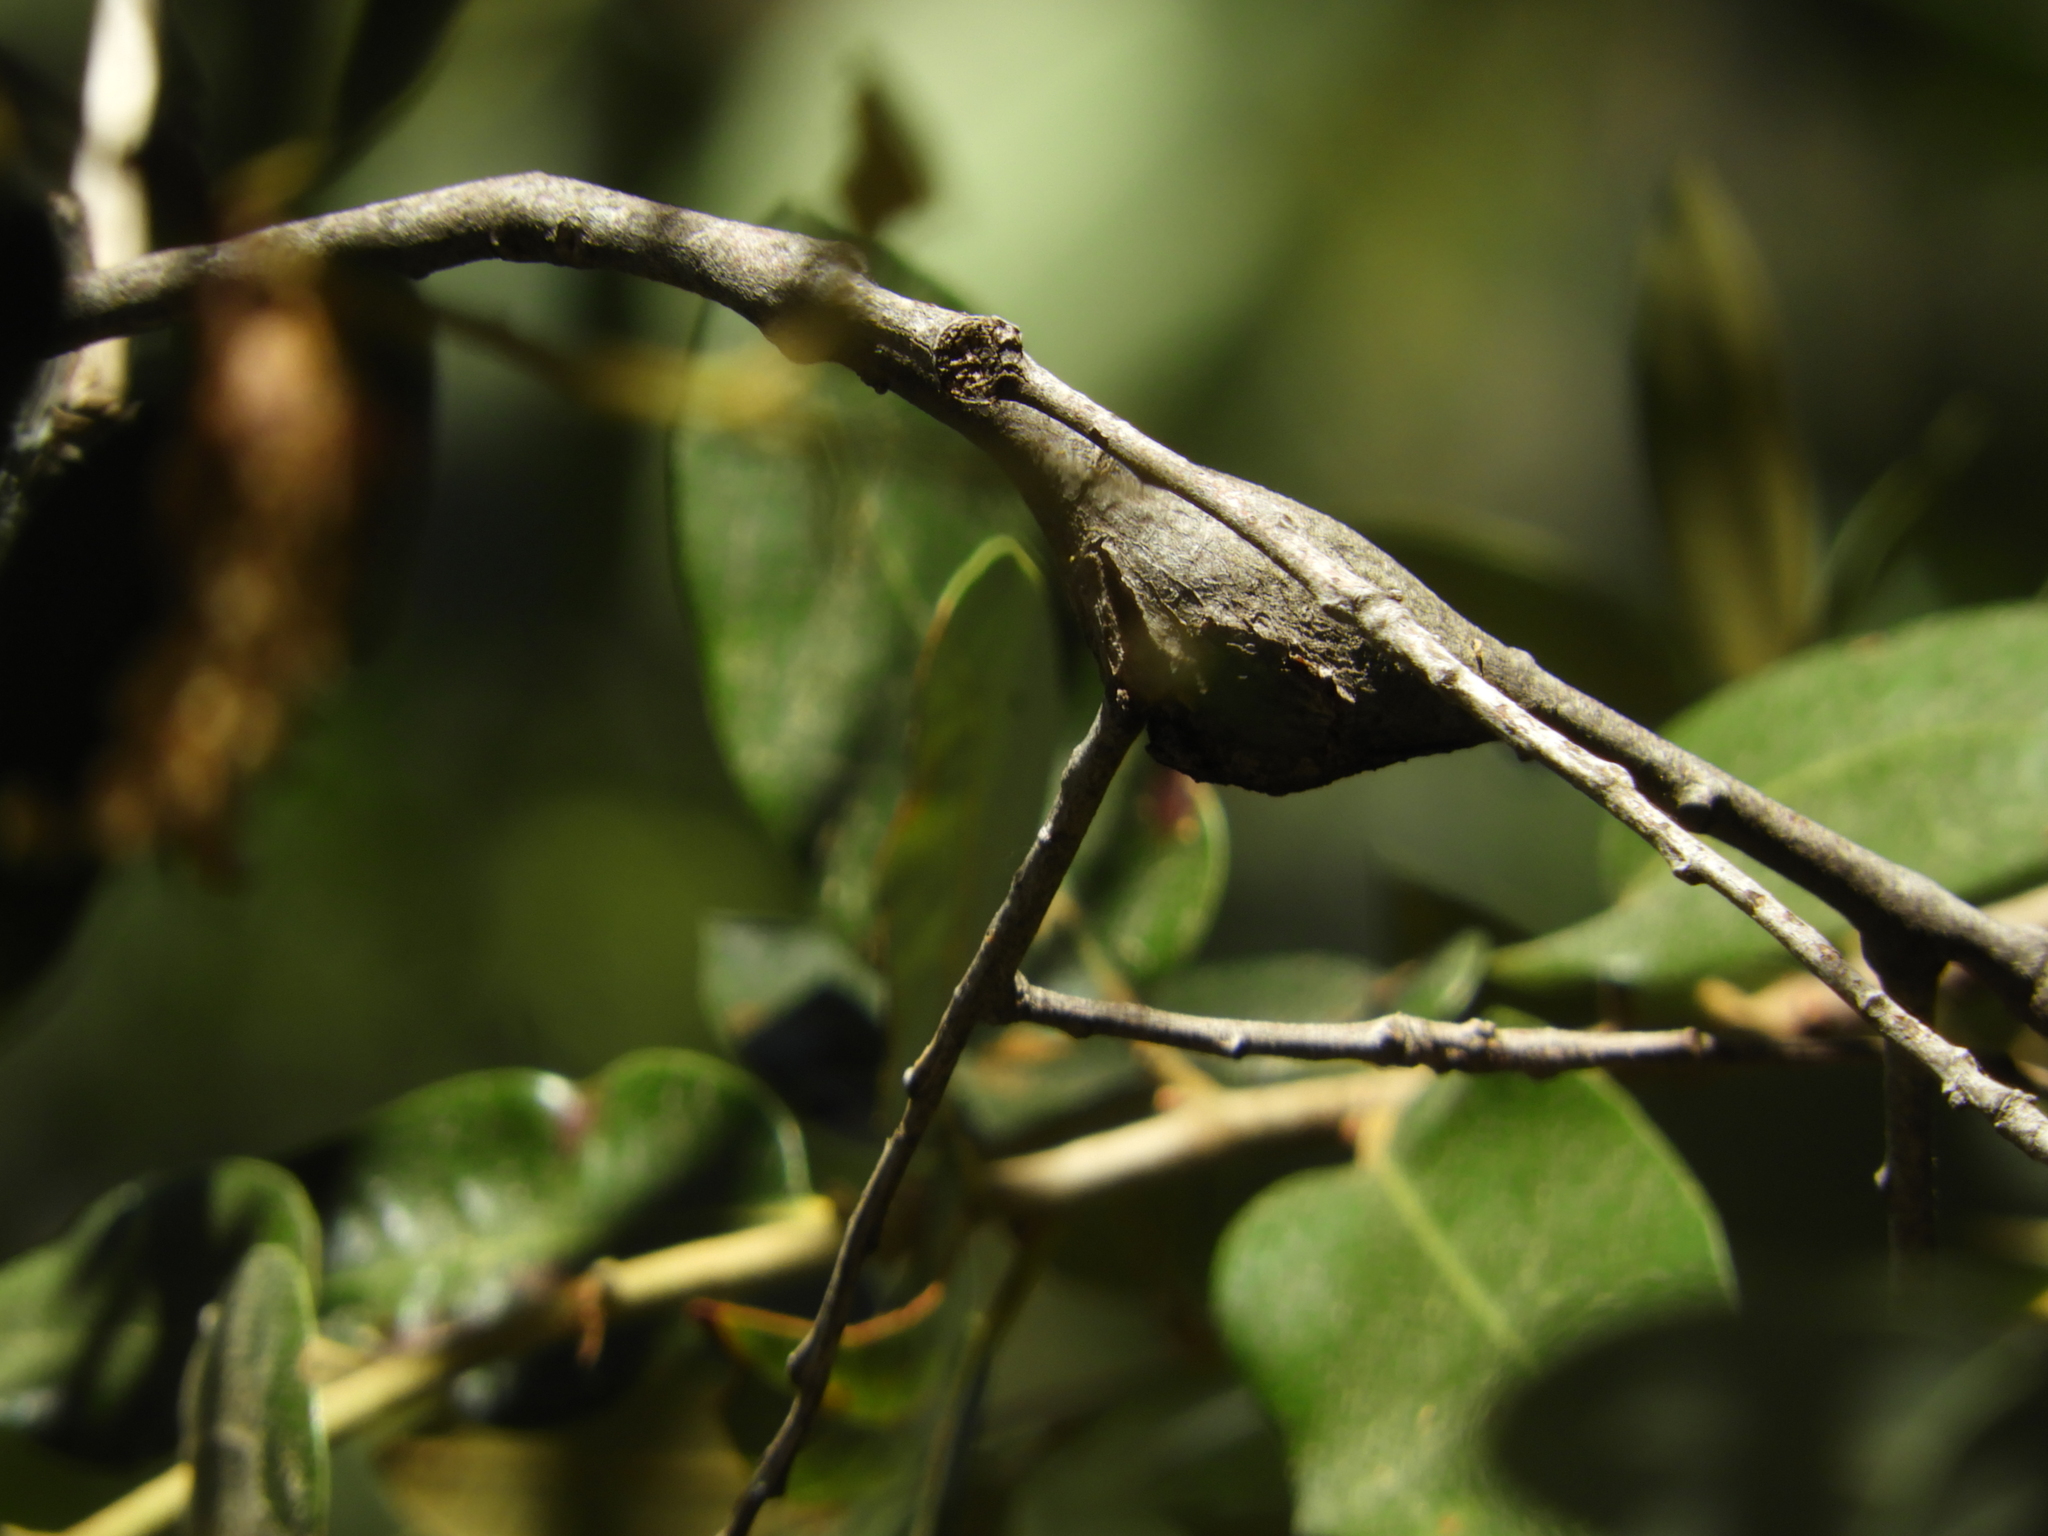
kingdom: Animalia
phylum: Arthropoda
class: Insecta
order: Hymenoptera
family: Cynipidae
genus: Disholcaspis
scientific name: Disholcaspis spectabilis
